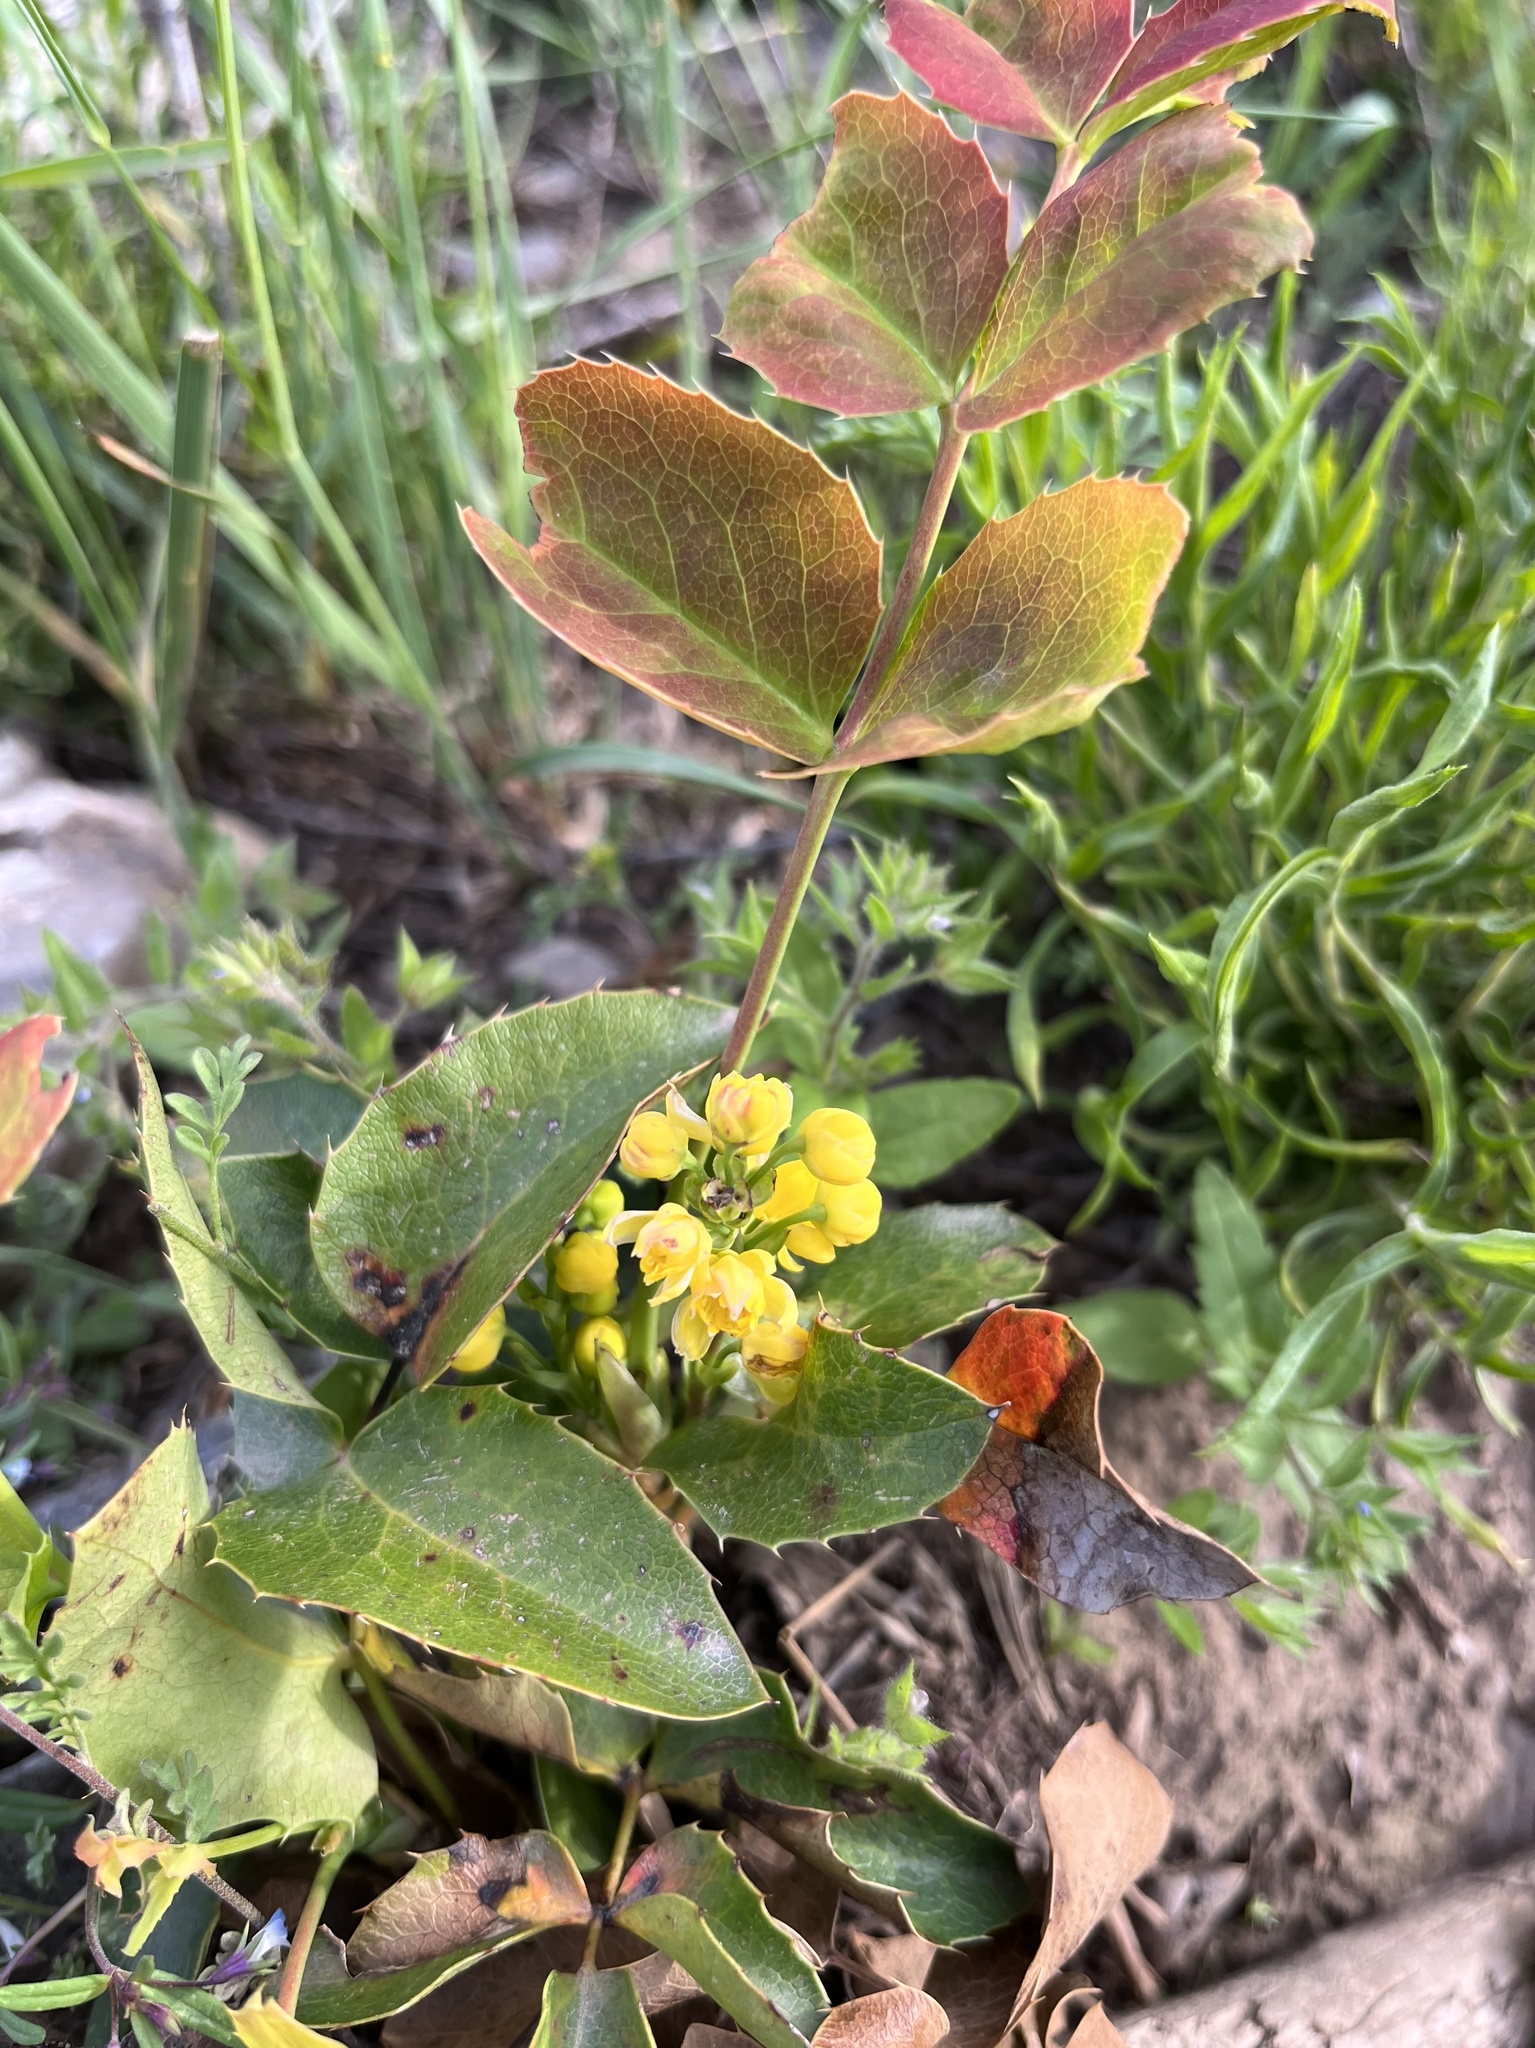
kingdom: Plantae
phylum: Tracheophyta
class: Magnoliopsida
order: Ranunculales
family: Berberidaceae
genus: Mahonia
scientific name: Mahonia repens
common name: Creeping oregon-grape
